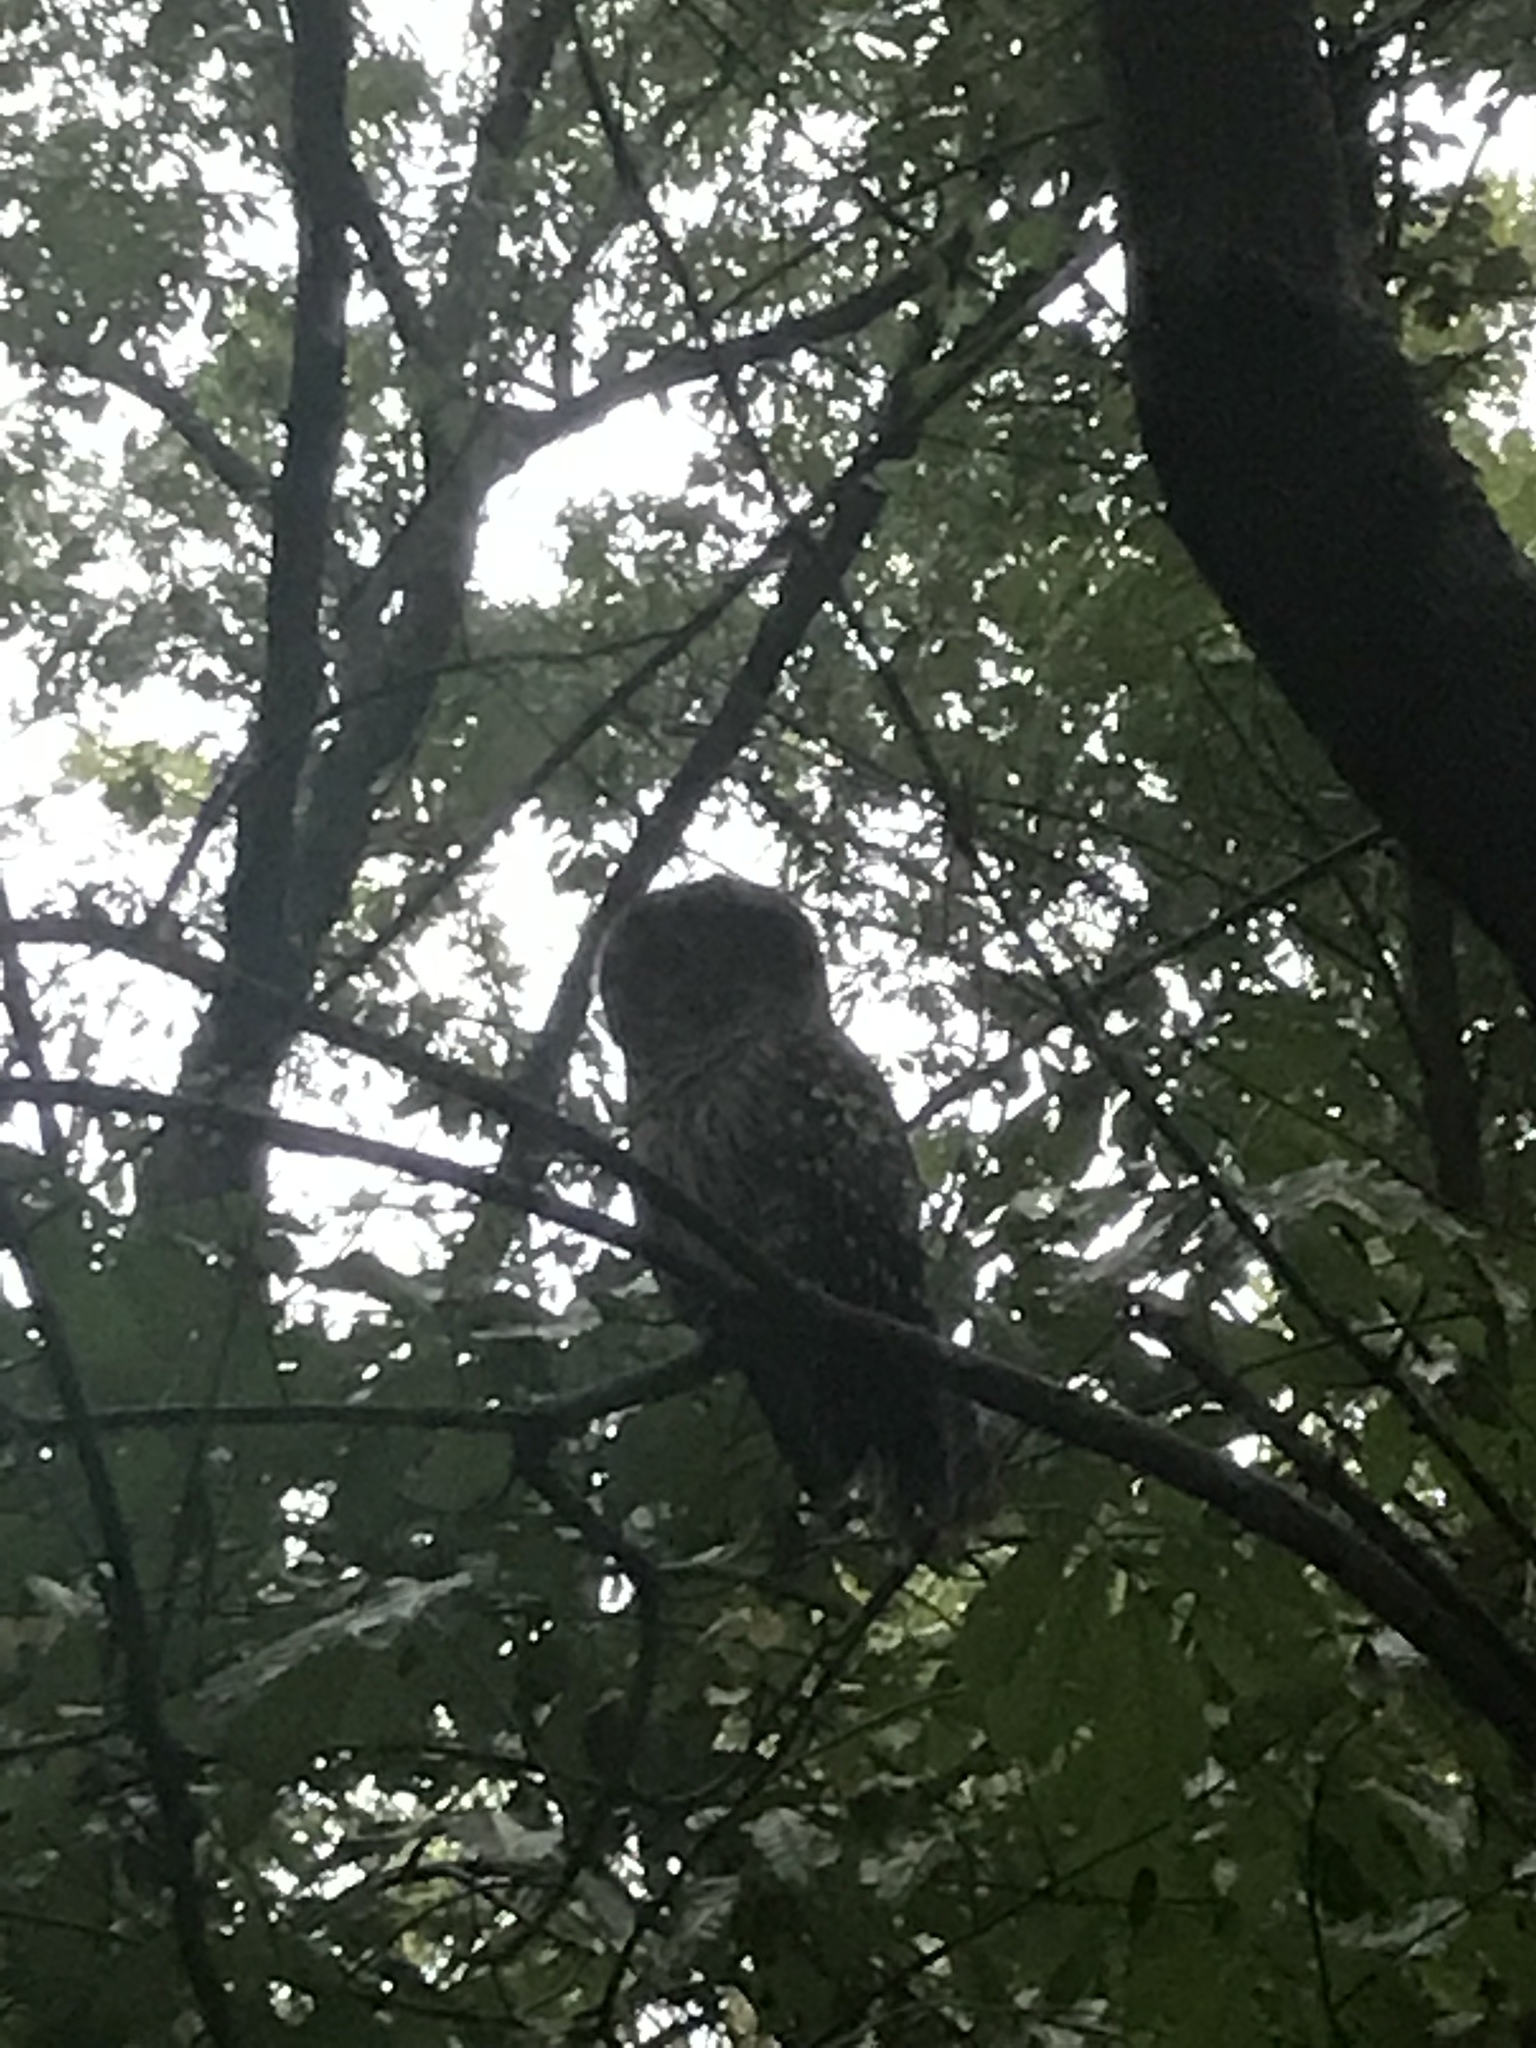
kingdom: Animalia
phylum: Chordata
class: Aves
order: Strigiformes
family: Strigidae
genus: Strix
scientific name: Strix varia
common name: Barred owl
